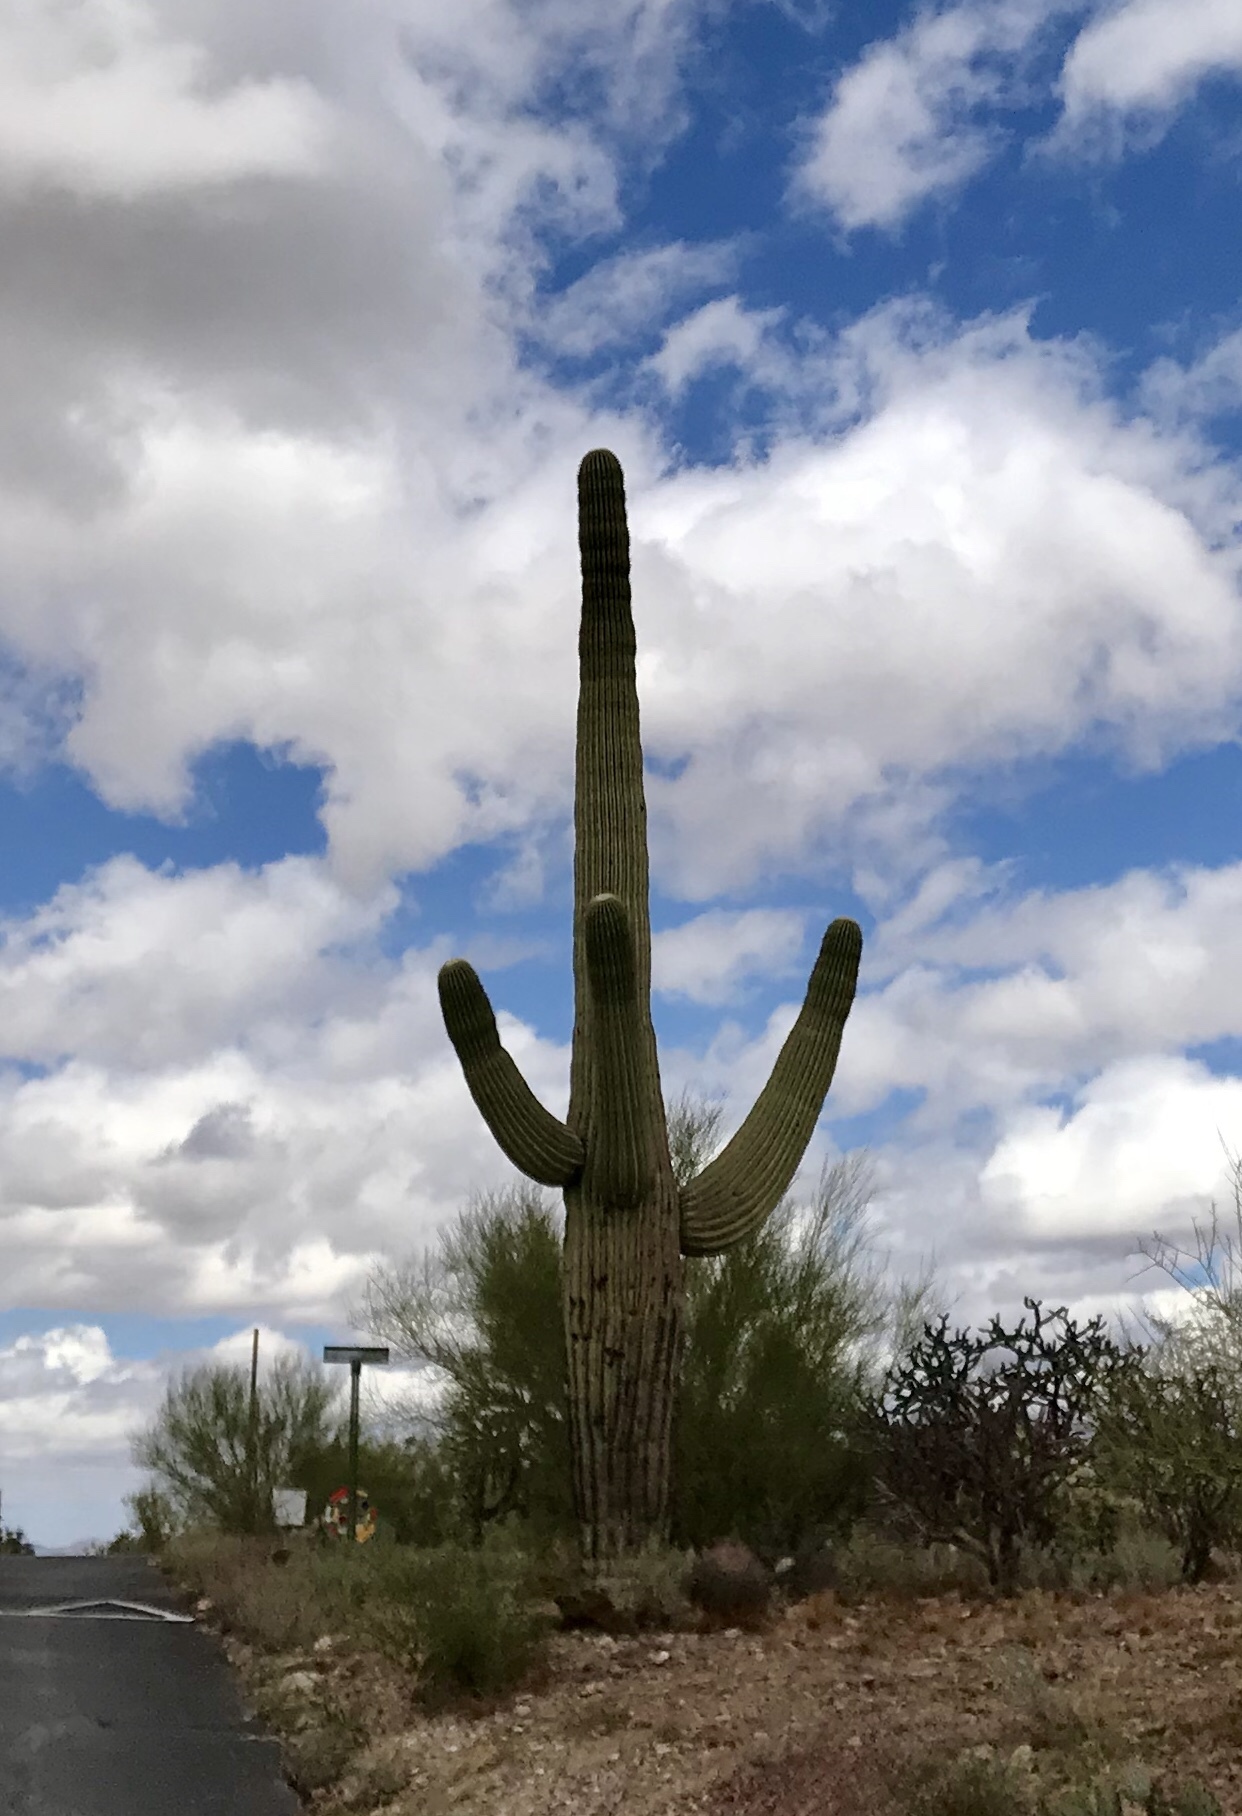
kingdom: Plantae
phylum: Tracheophyta
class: Magnoliopsida
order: Caryophyllales
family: Cactaceae
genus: Carnegiea
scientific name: Carnegiea gigantea
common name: Saguaro
